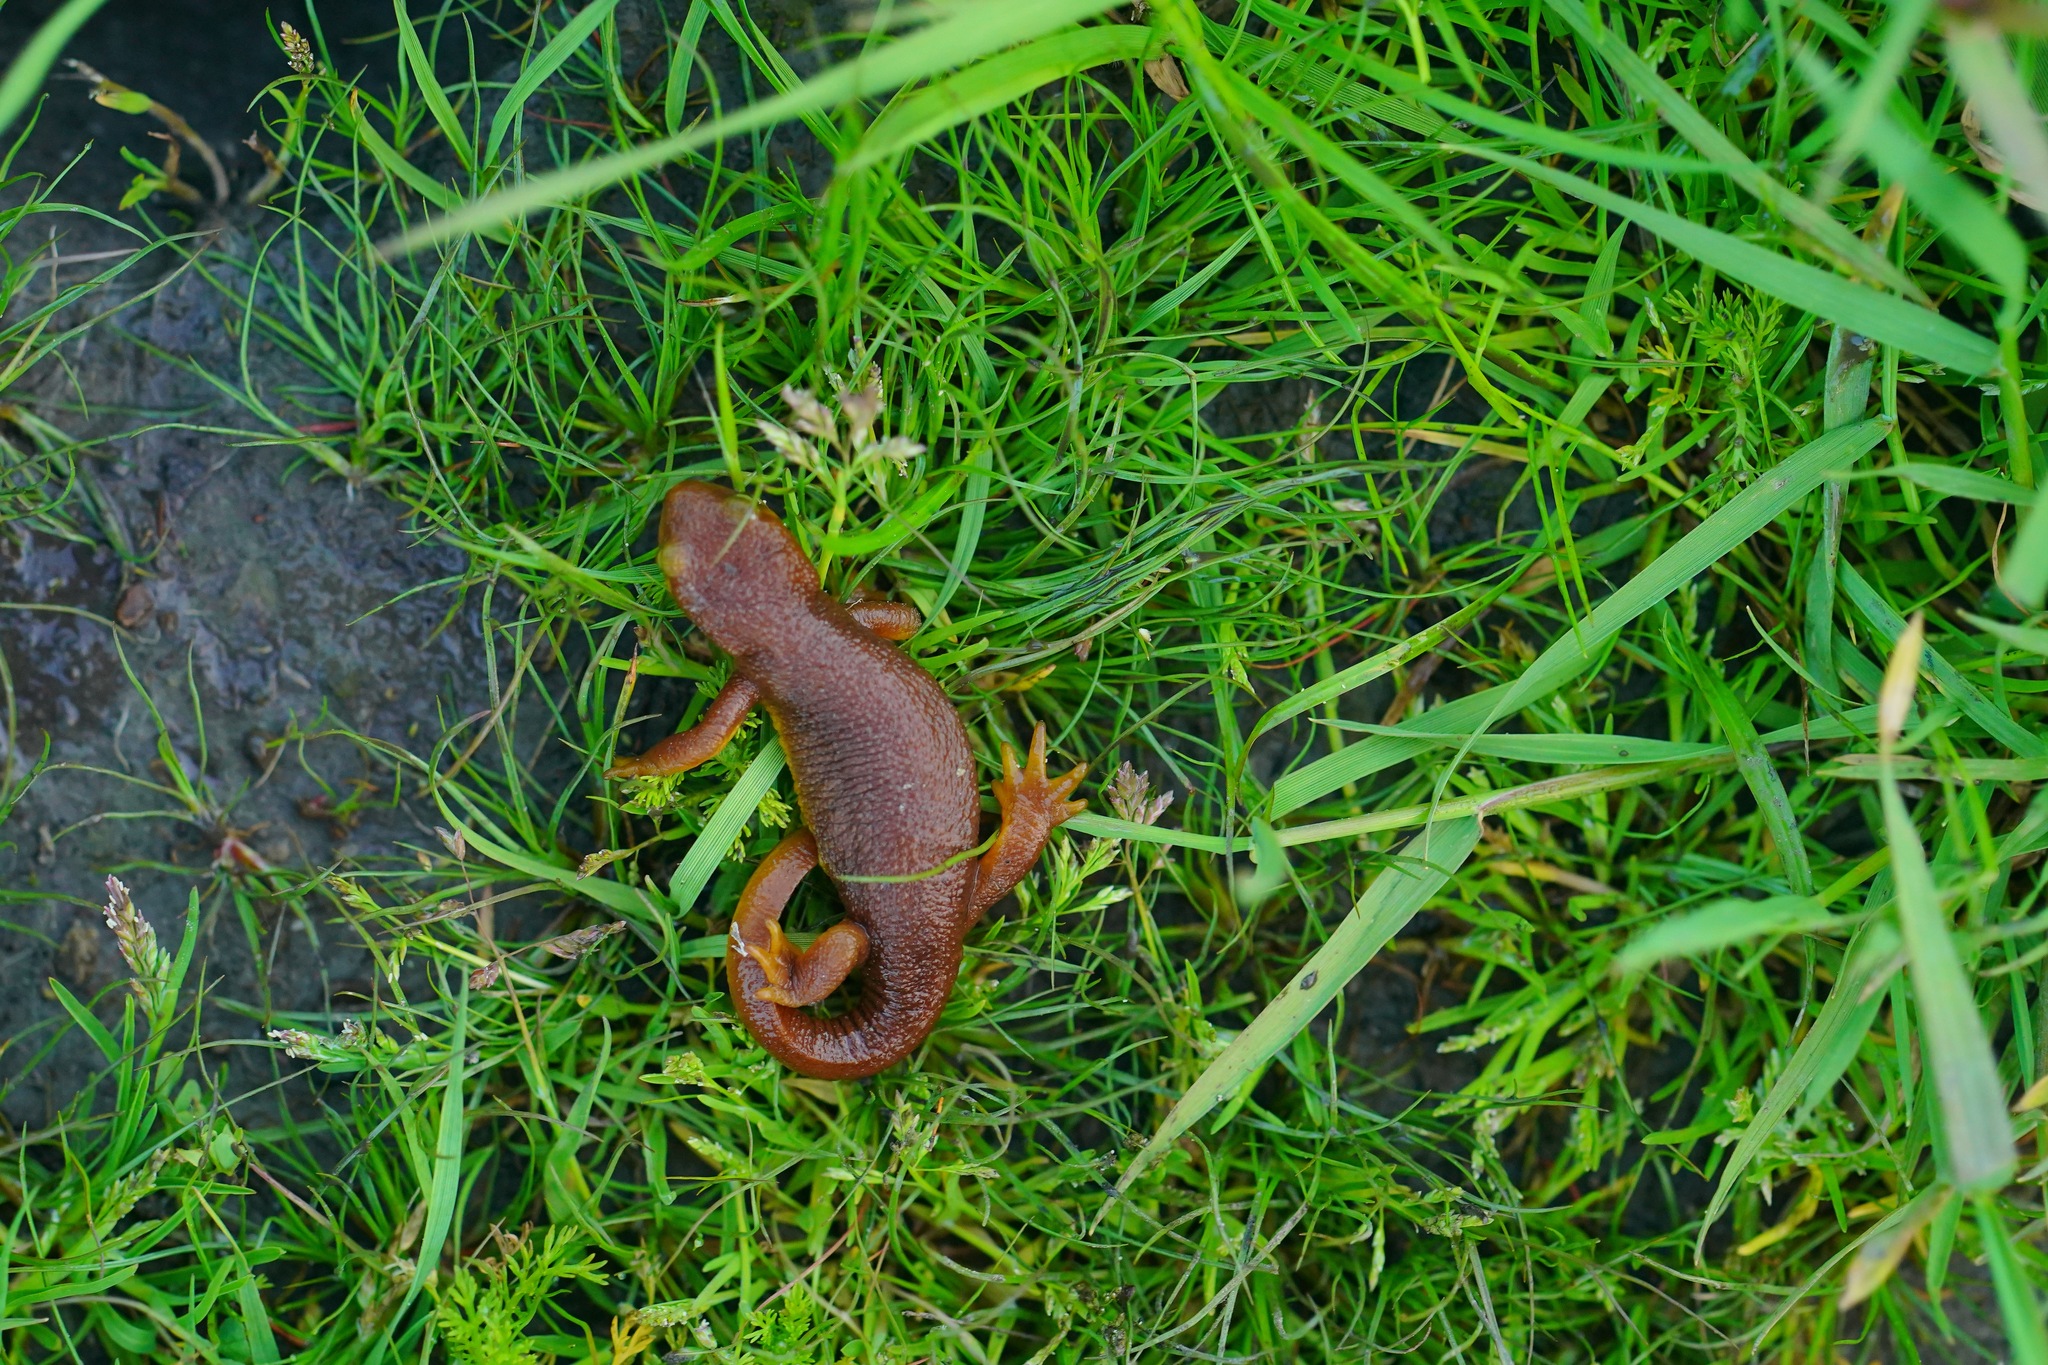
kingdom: Animalia
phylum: Chordata
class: Amphibia
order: Caudata
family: Salamandridae
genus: Taricha
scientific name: Taricha torosa
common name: California newt
